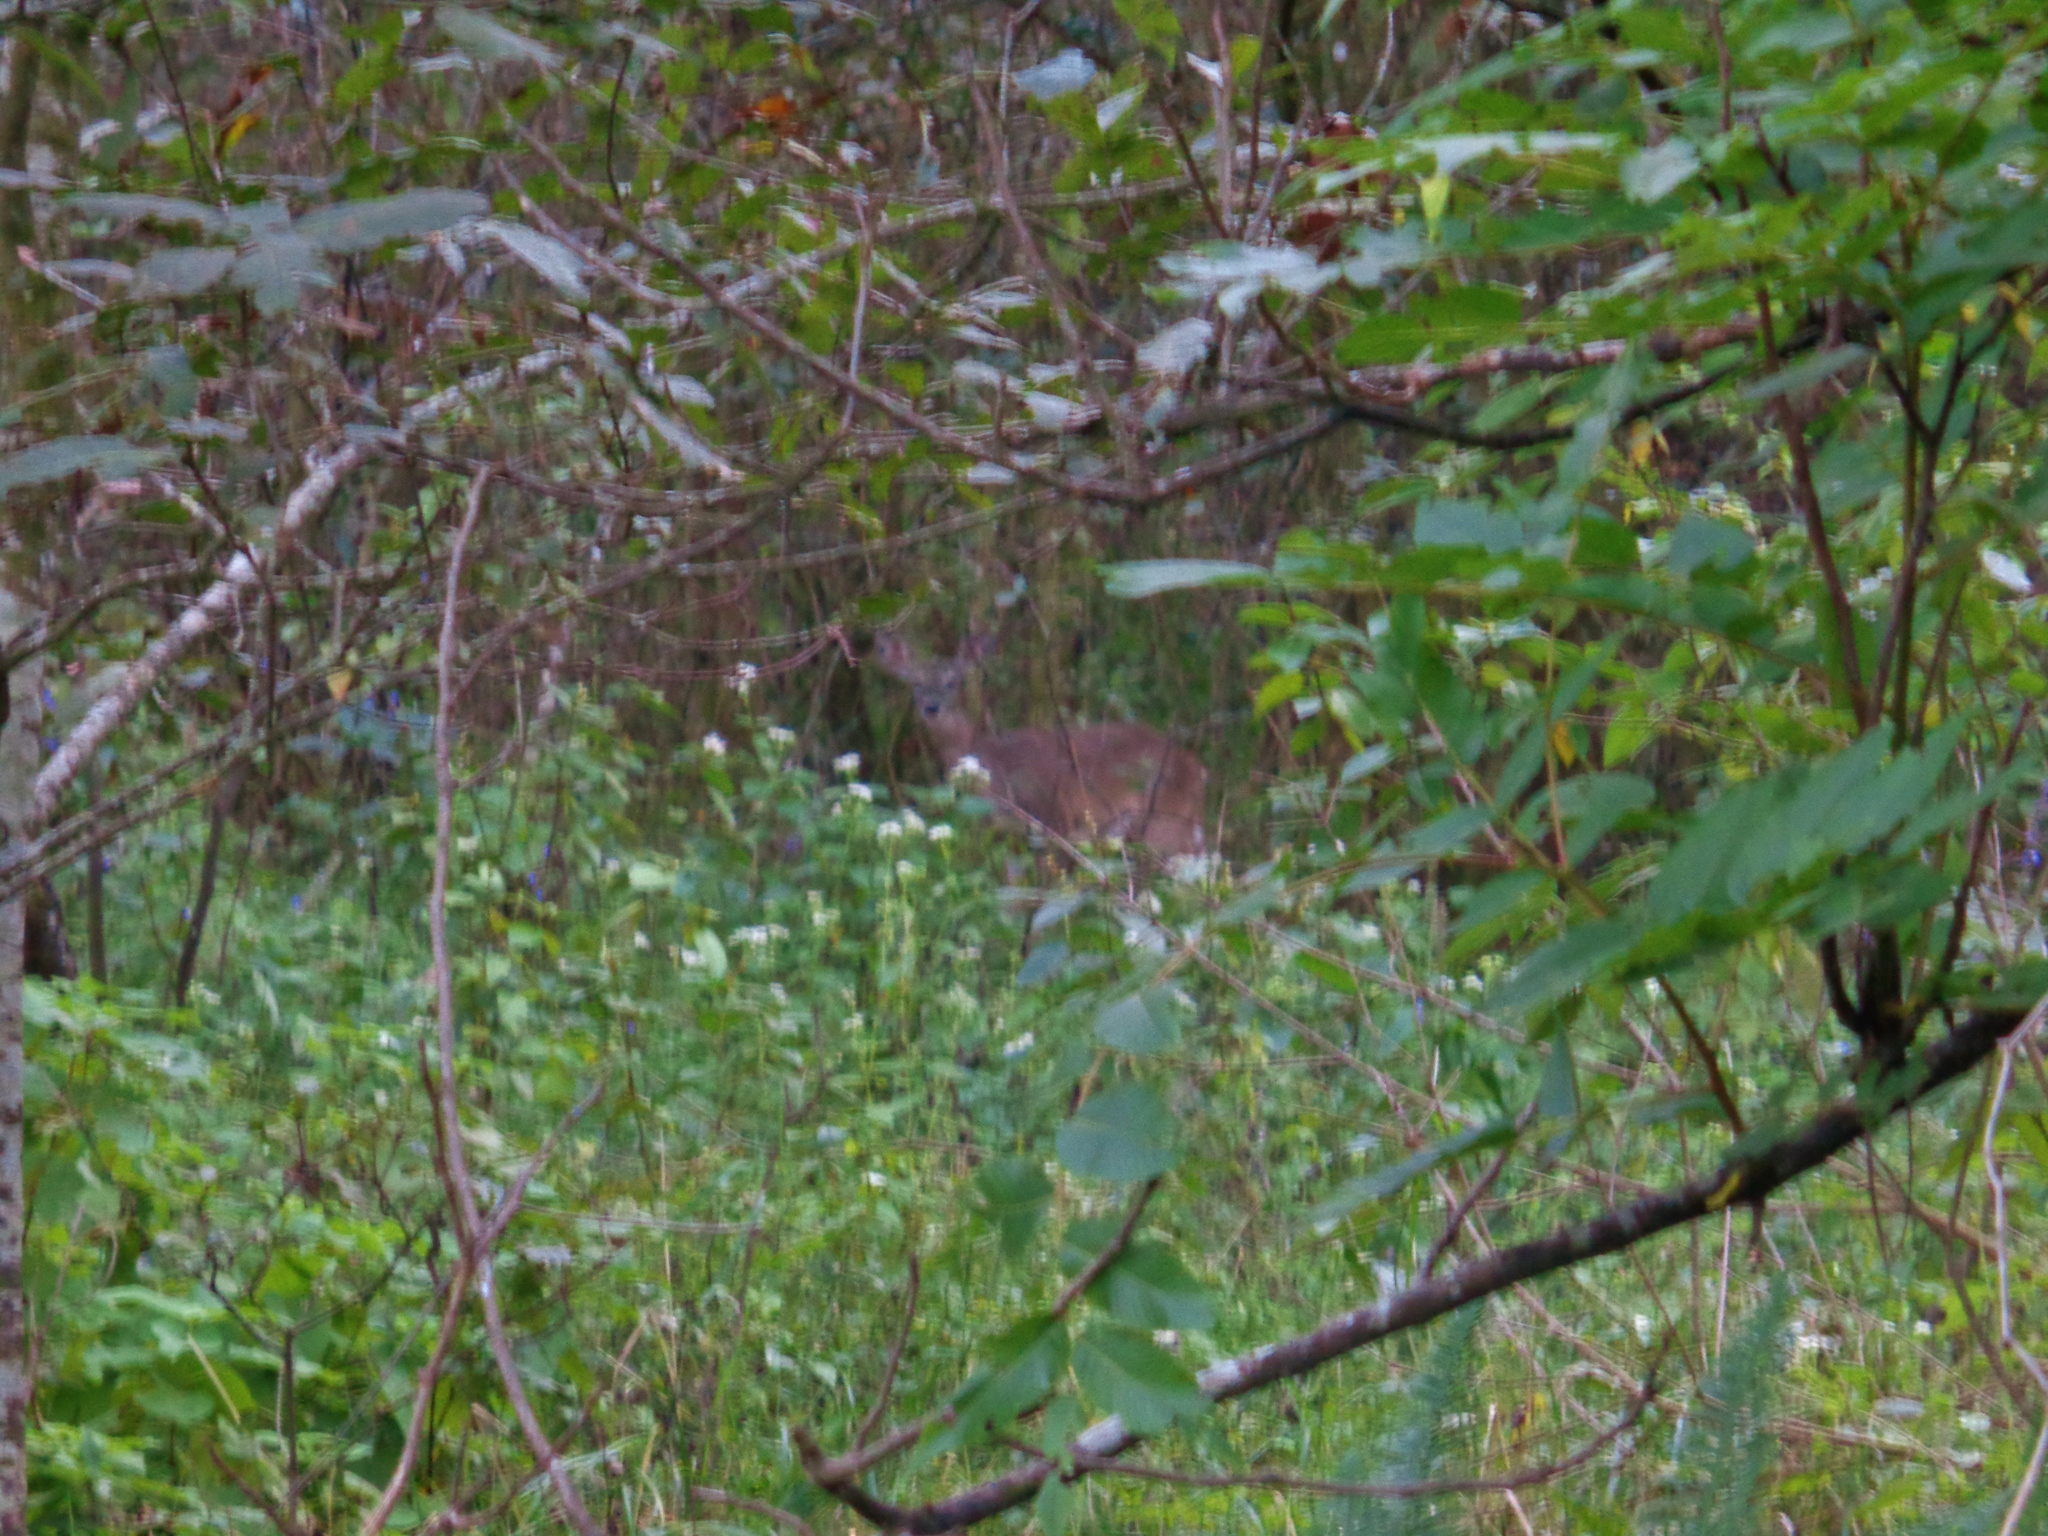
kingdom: Animalia
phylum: Chordata
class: Mammalia
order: Artiodactyla
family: Cervidae
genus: Odocoileus
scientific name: Odocoileus virginianus
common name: White-tailed deer
